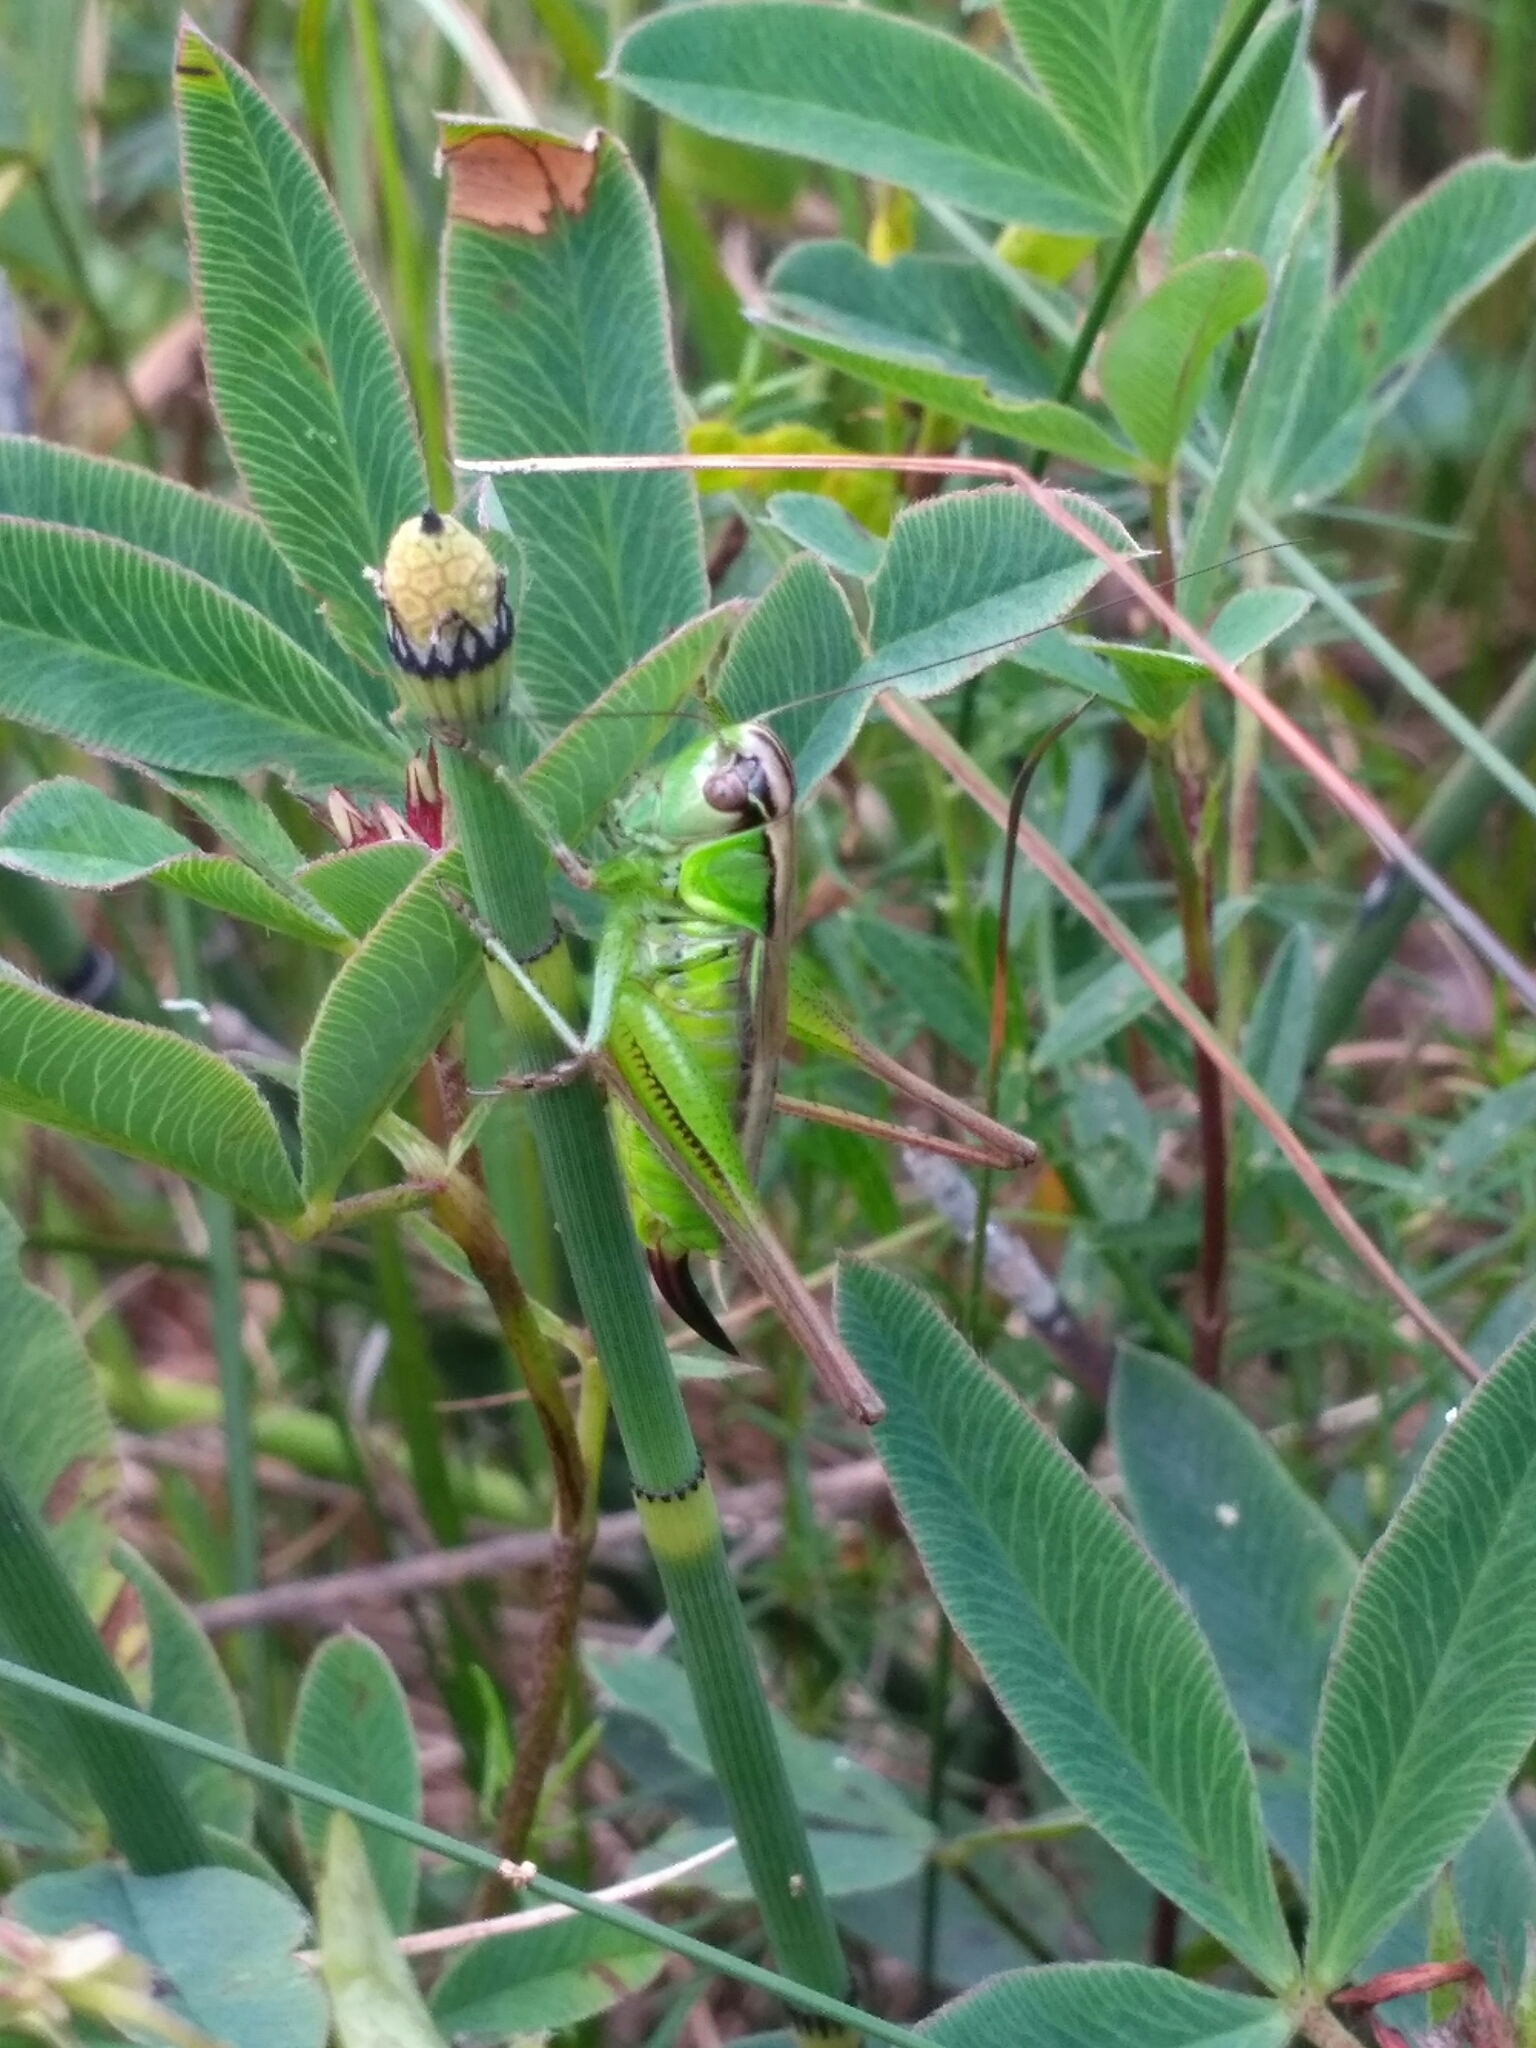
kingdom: Animalia
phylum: Arthropoda
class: Insecta
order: Orthoptera
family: Tettigoniidae
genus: Roeseliana
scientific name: Roeseliana roeselii
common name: Roesel's bush cricket
